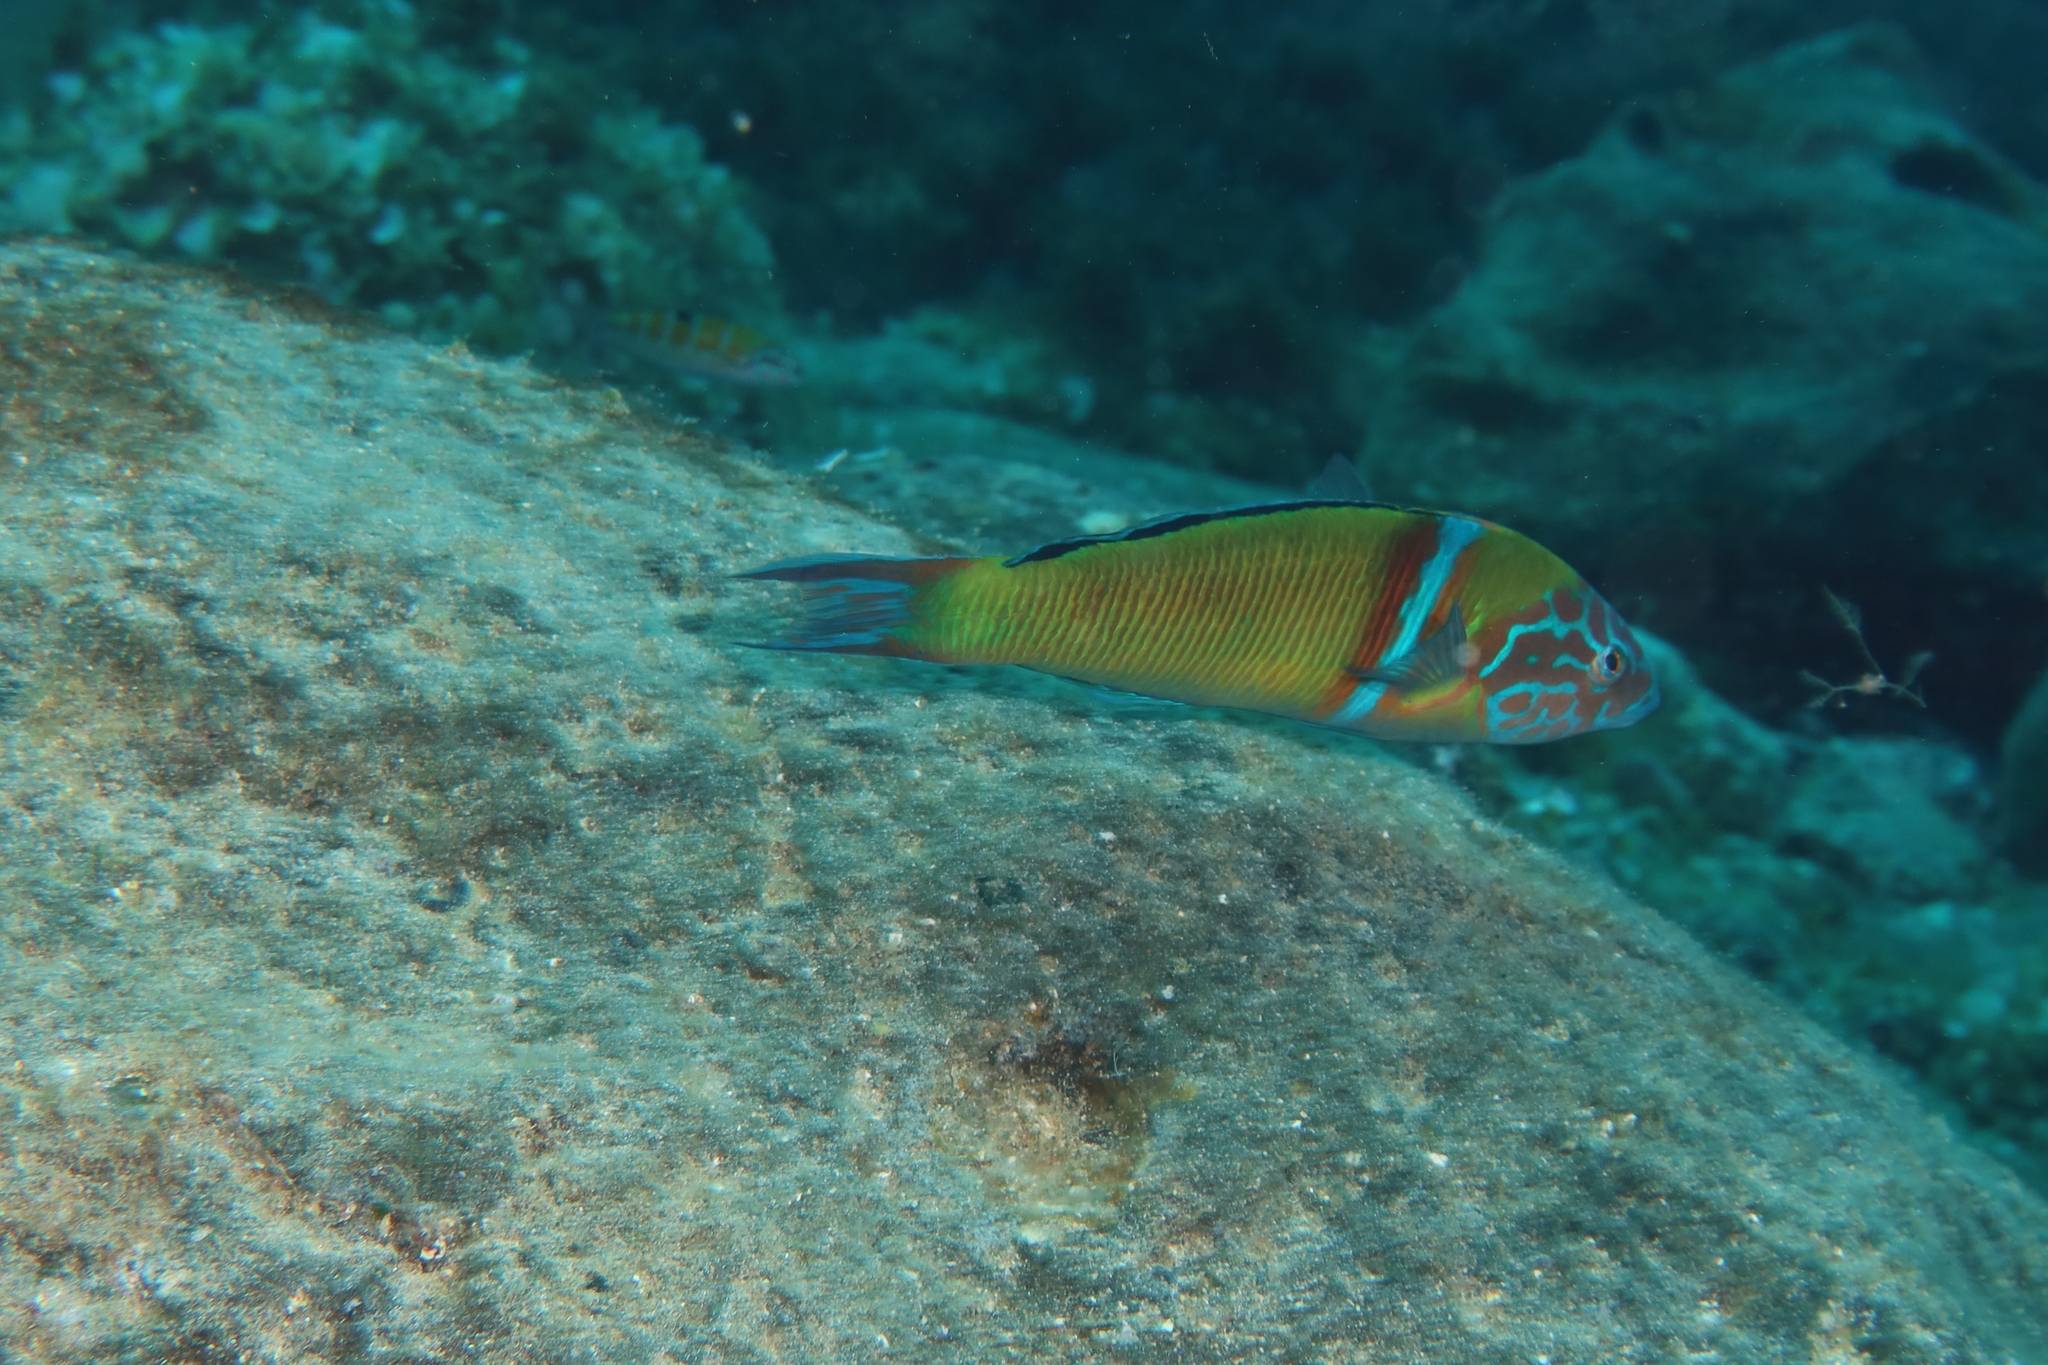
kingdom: Animalia
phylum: Chordata
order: Perciformes
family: Labridae
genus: Thalassoma
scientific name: Thalassoma pavo
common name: Ornate wrasse
